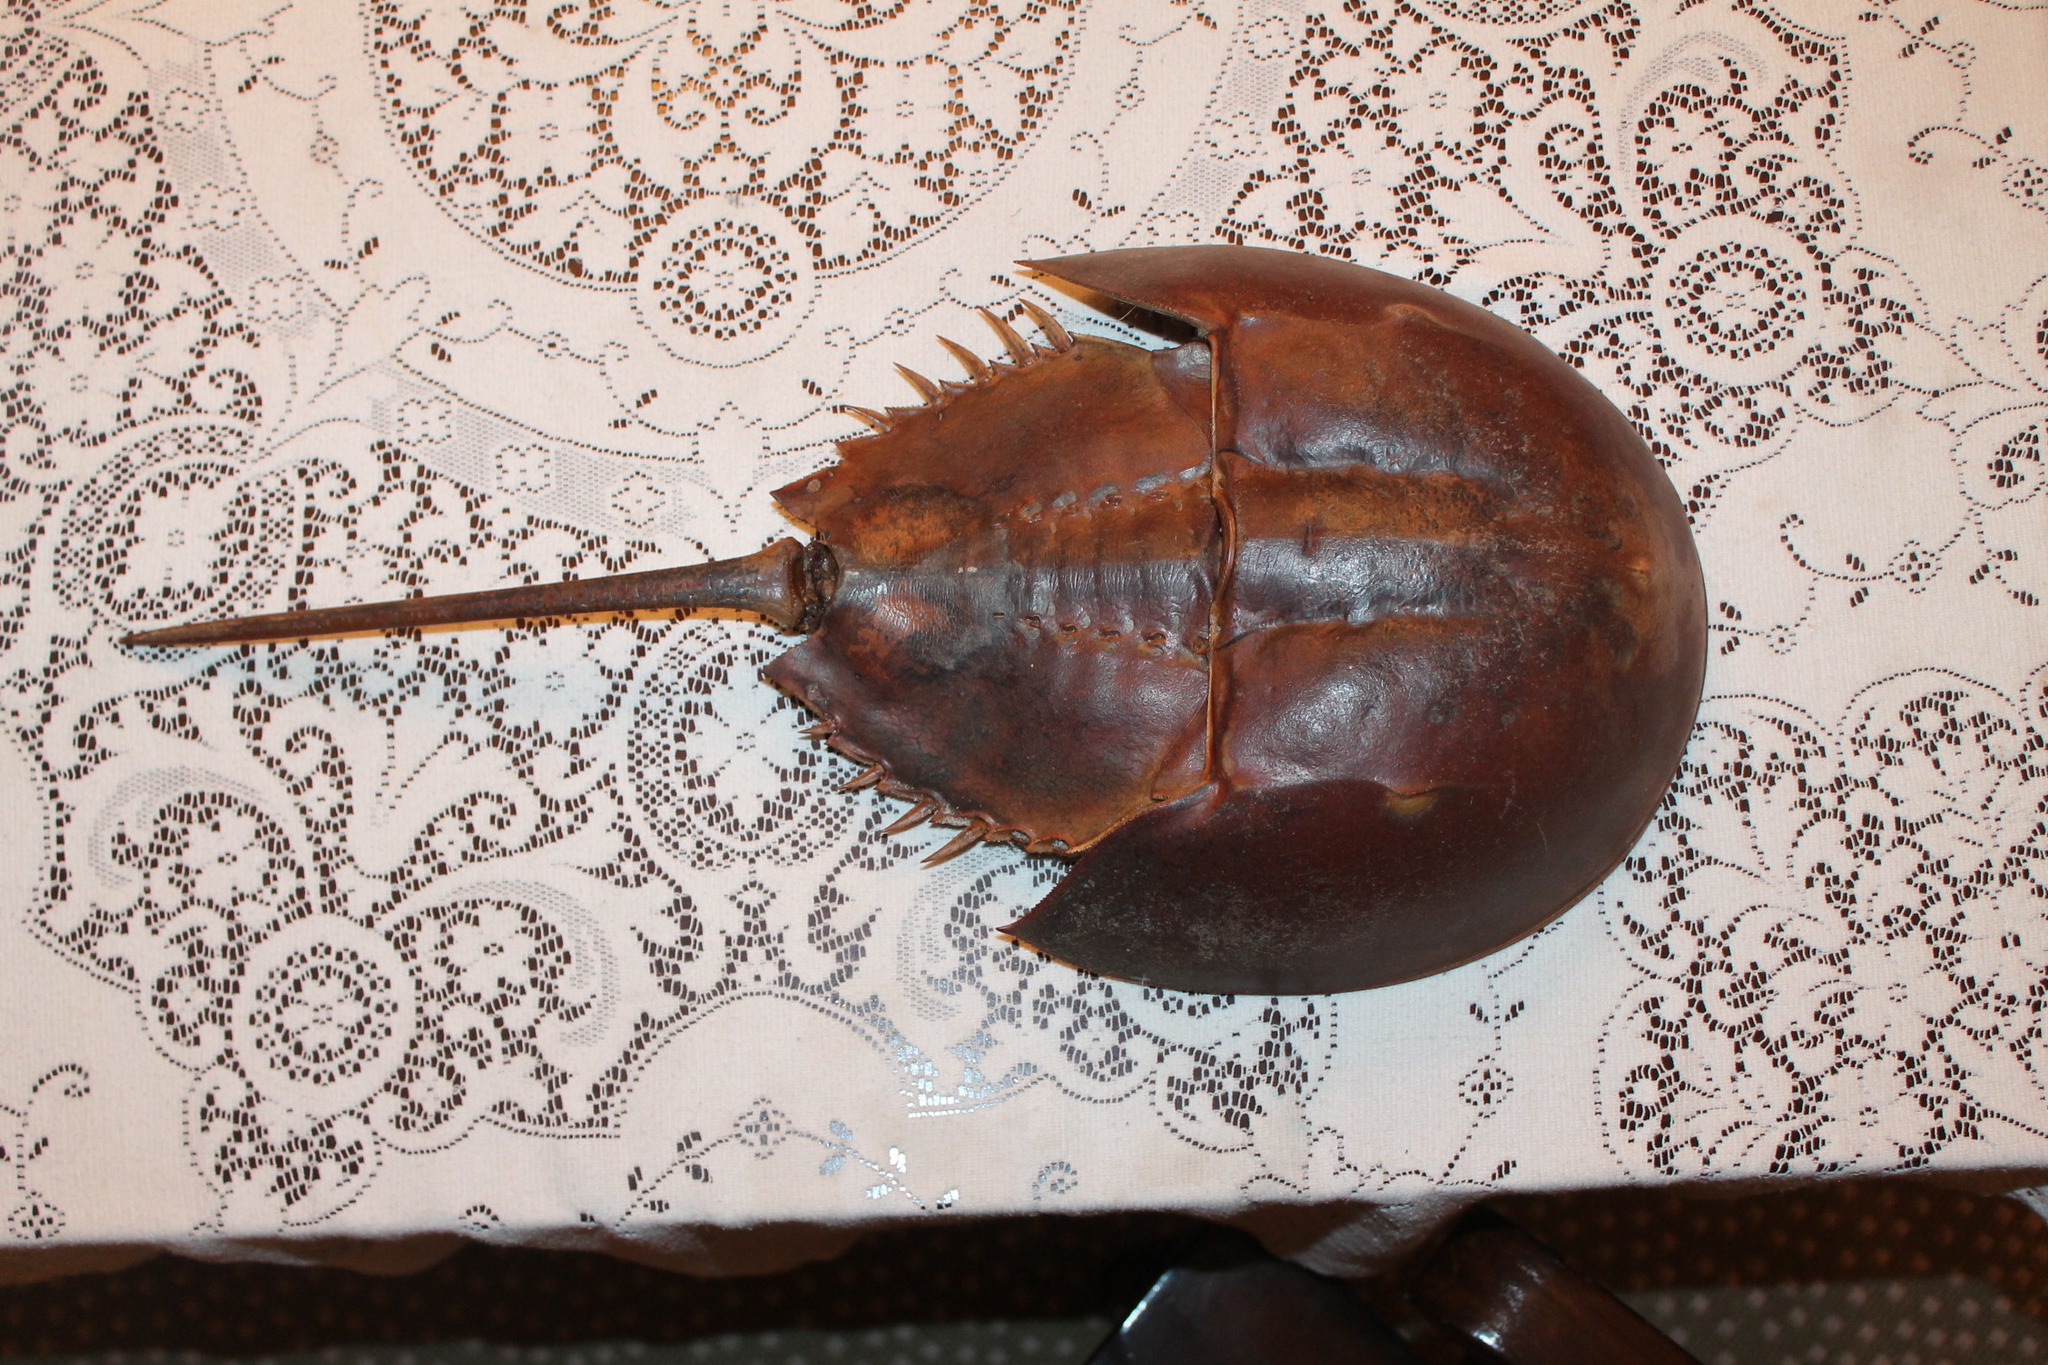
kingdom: Animalia
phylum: Arthropoda
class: Merostomata
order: Xiphosurida
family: Limulidae
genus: Limulus
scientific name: Limulus polyphemus
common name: Horseshoe crab
